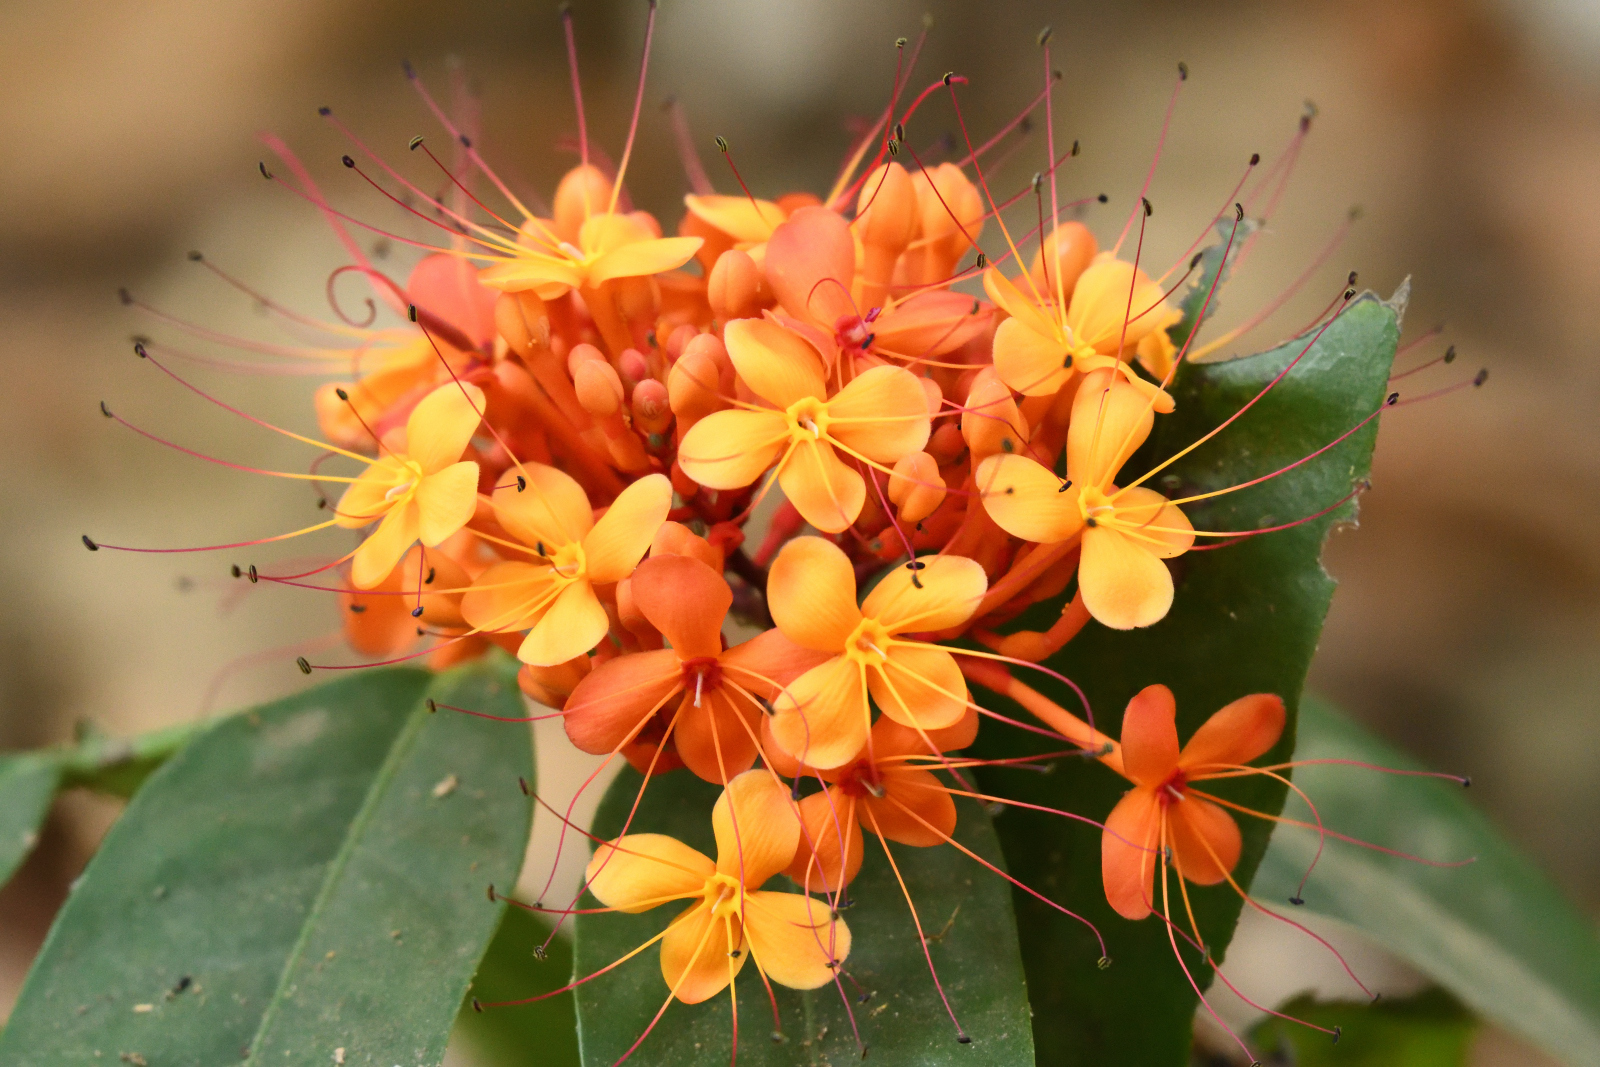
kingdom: Plantae
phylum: Tracheophyta
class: Magnoliopsida
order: Fabales
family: Fabaceae
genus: Saraca
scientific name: Saraca asoca
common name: Asoka-tree
